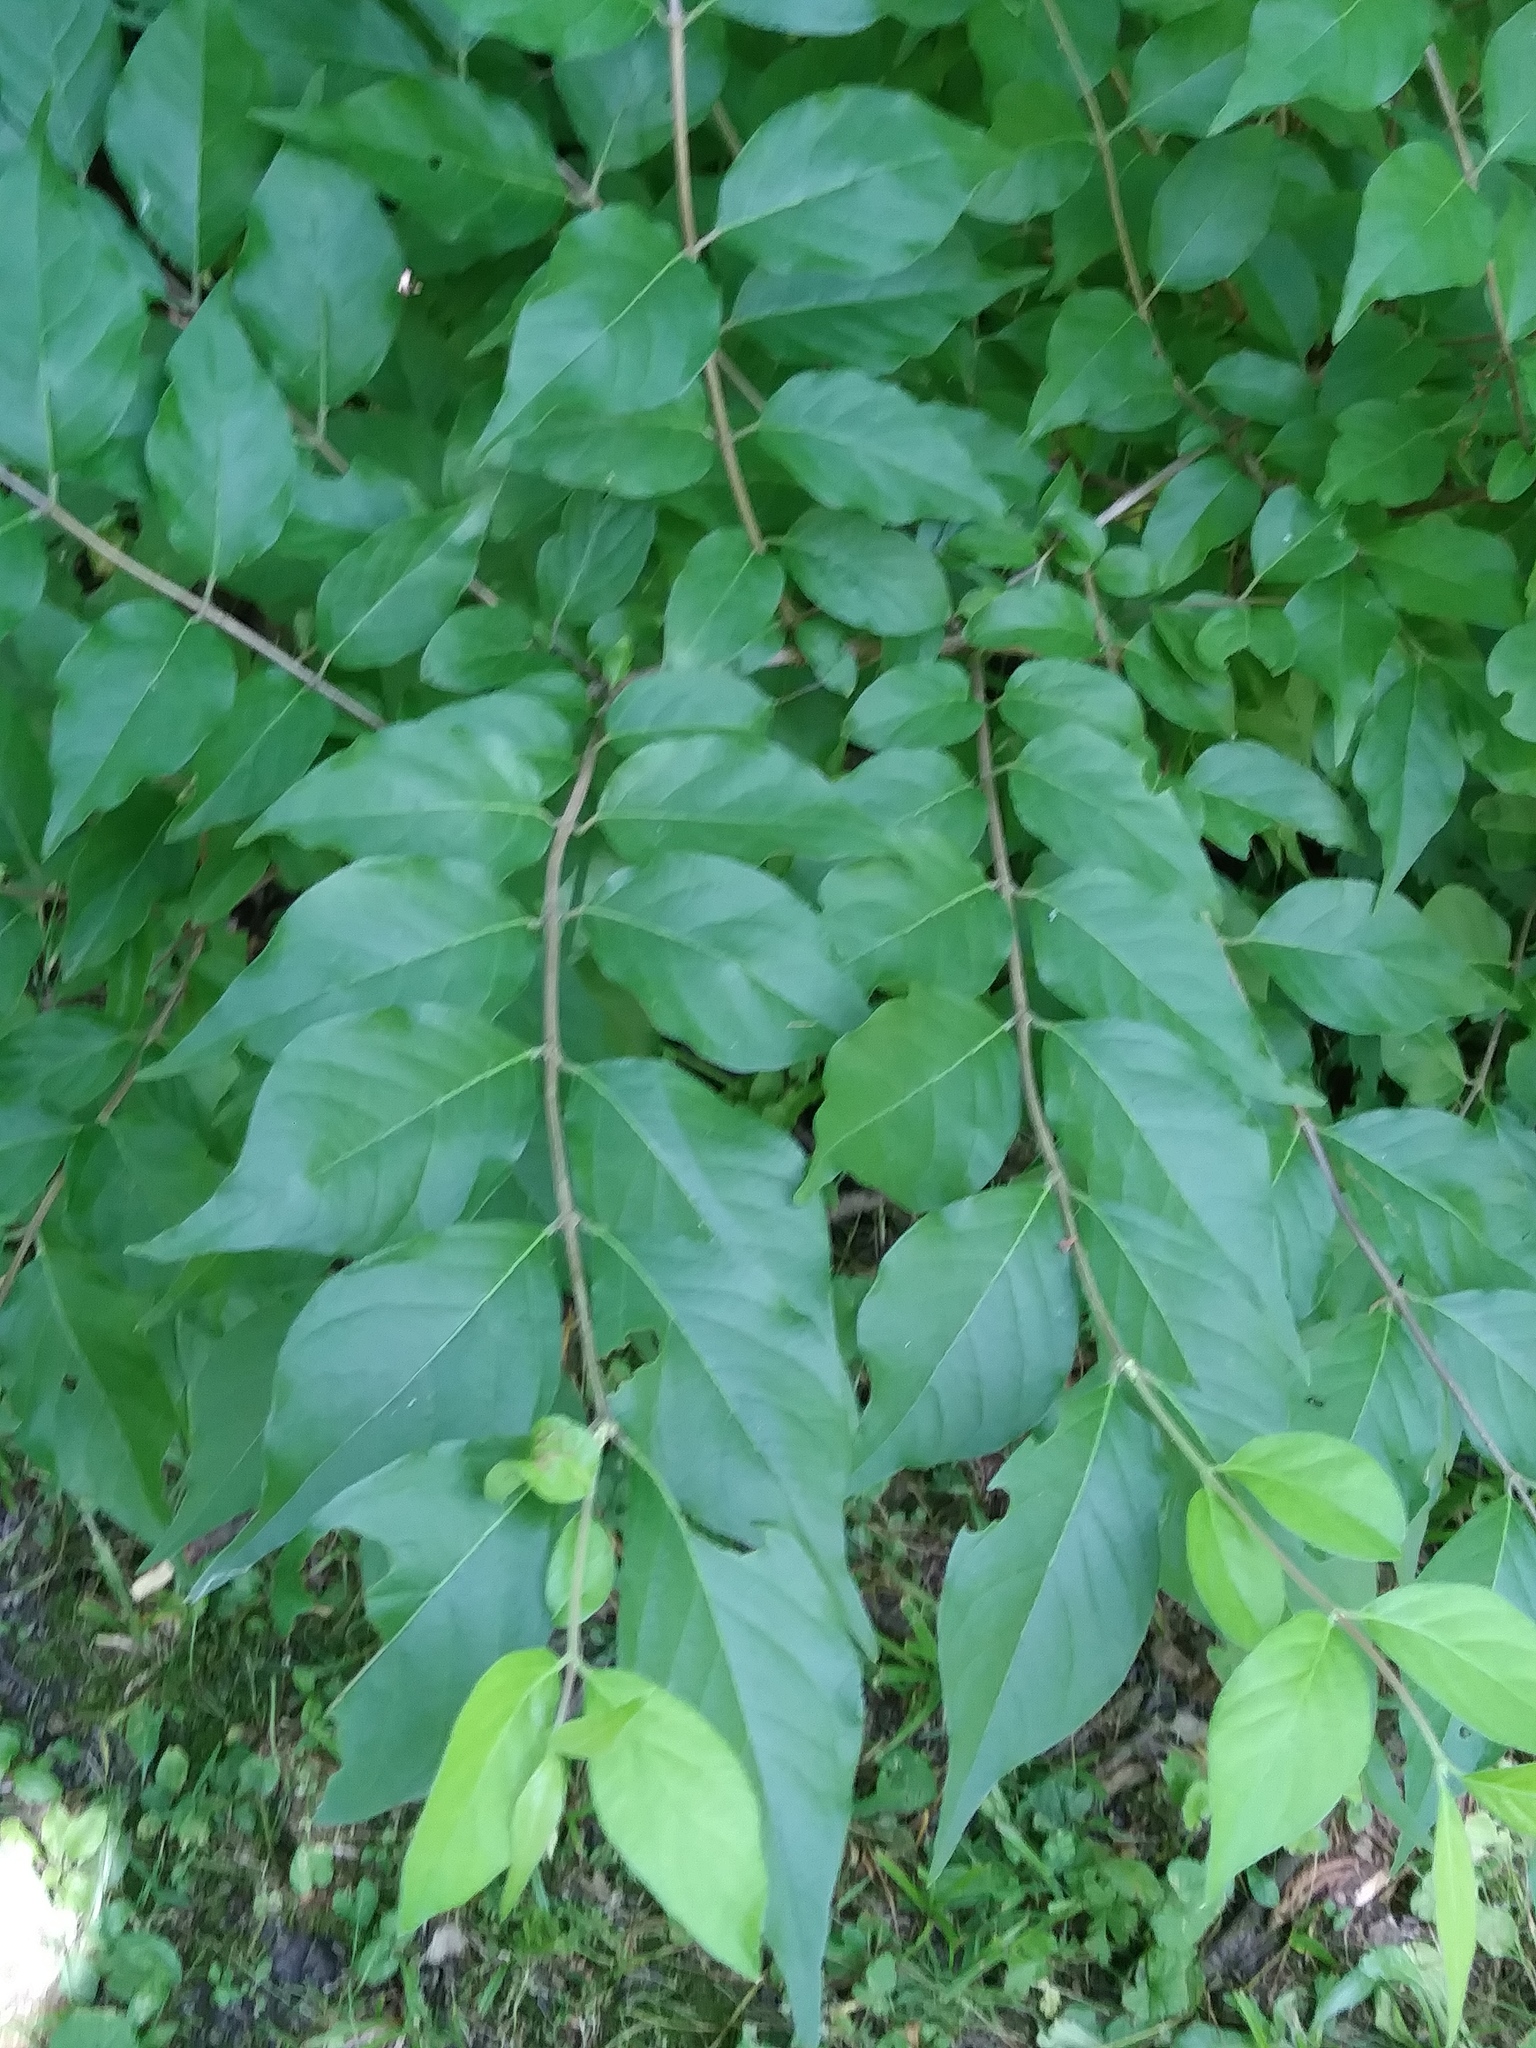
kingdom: Plantae
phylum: Tracheophyta
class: Magnoliopsida
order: Dipsacales
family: Caprifoliaceae
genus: Lonicera
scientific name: Lonicera maackii
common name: Amur honeysuckle
